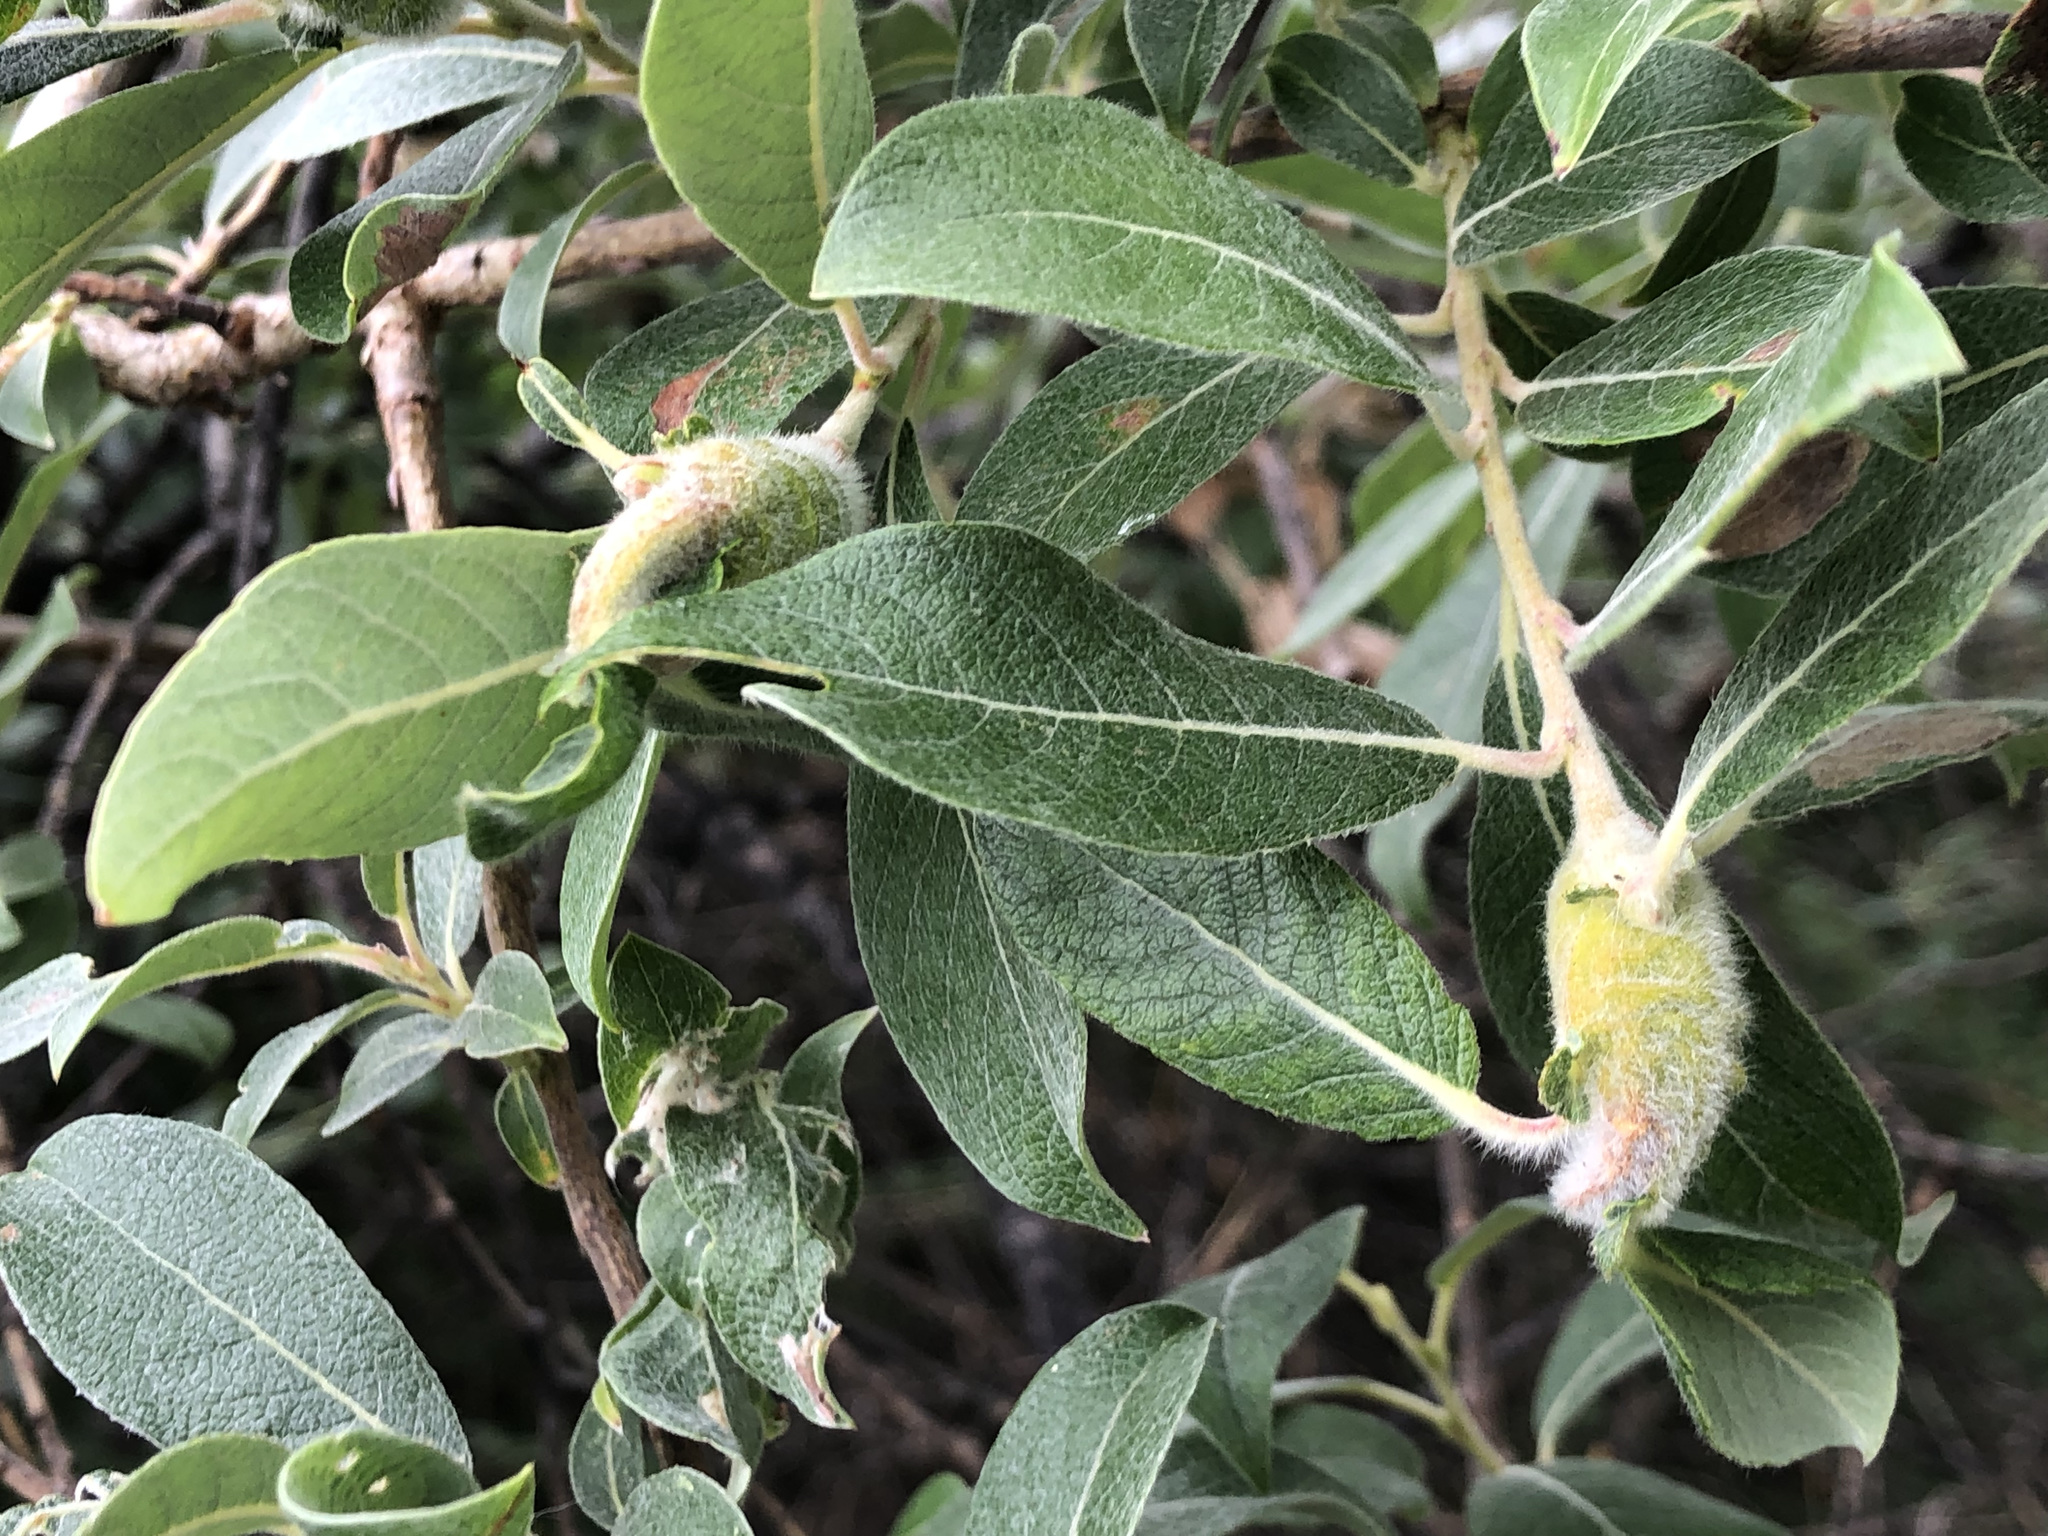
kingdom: Animalia
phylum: Arthropoda
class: Insecta
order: Diptera
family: Cecidomyiidae
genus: Thecodiplosis
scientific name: Thecodiplosis pinirigidae
